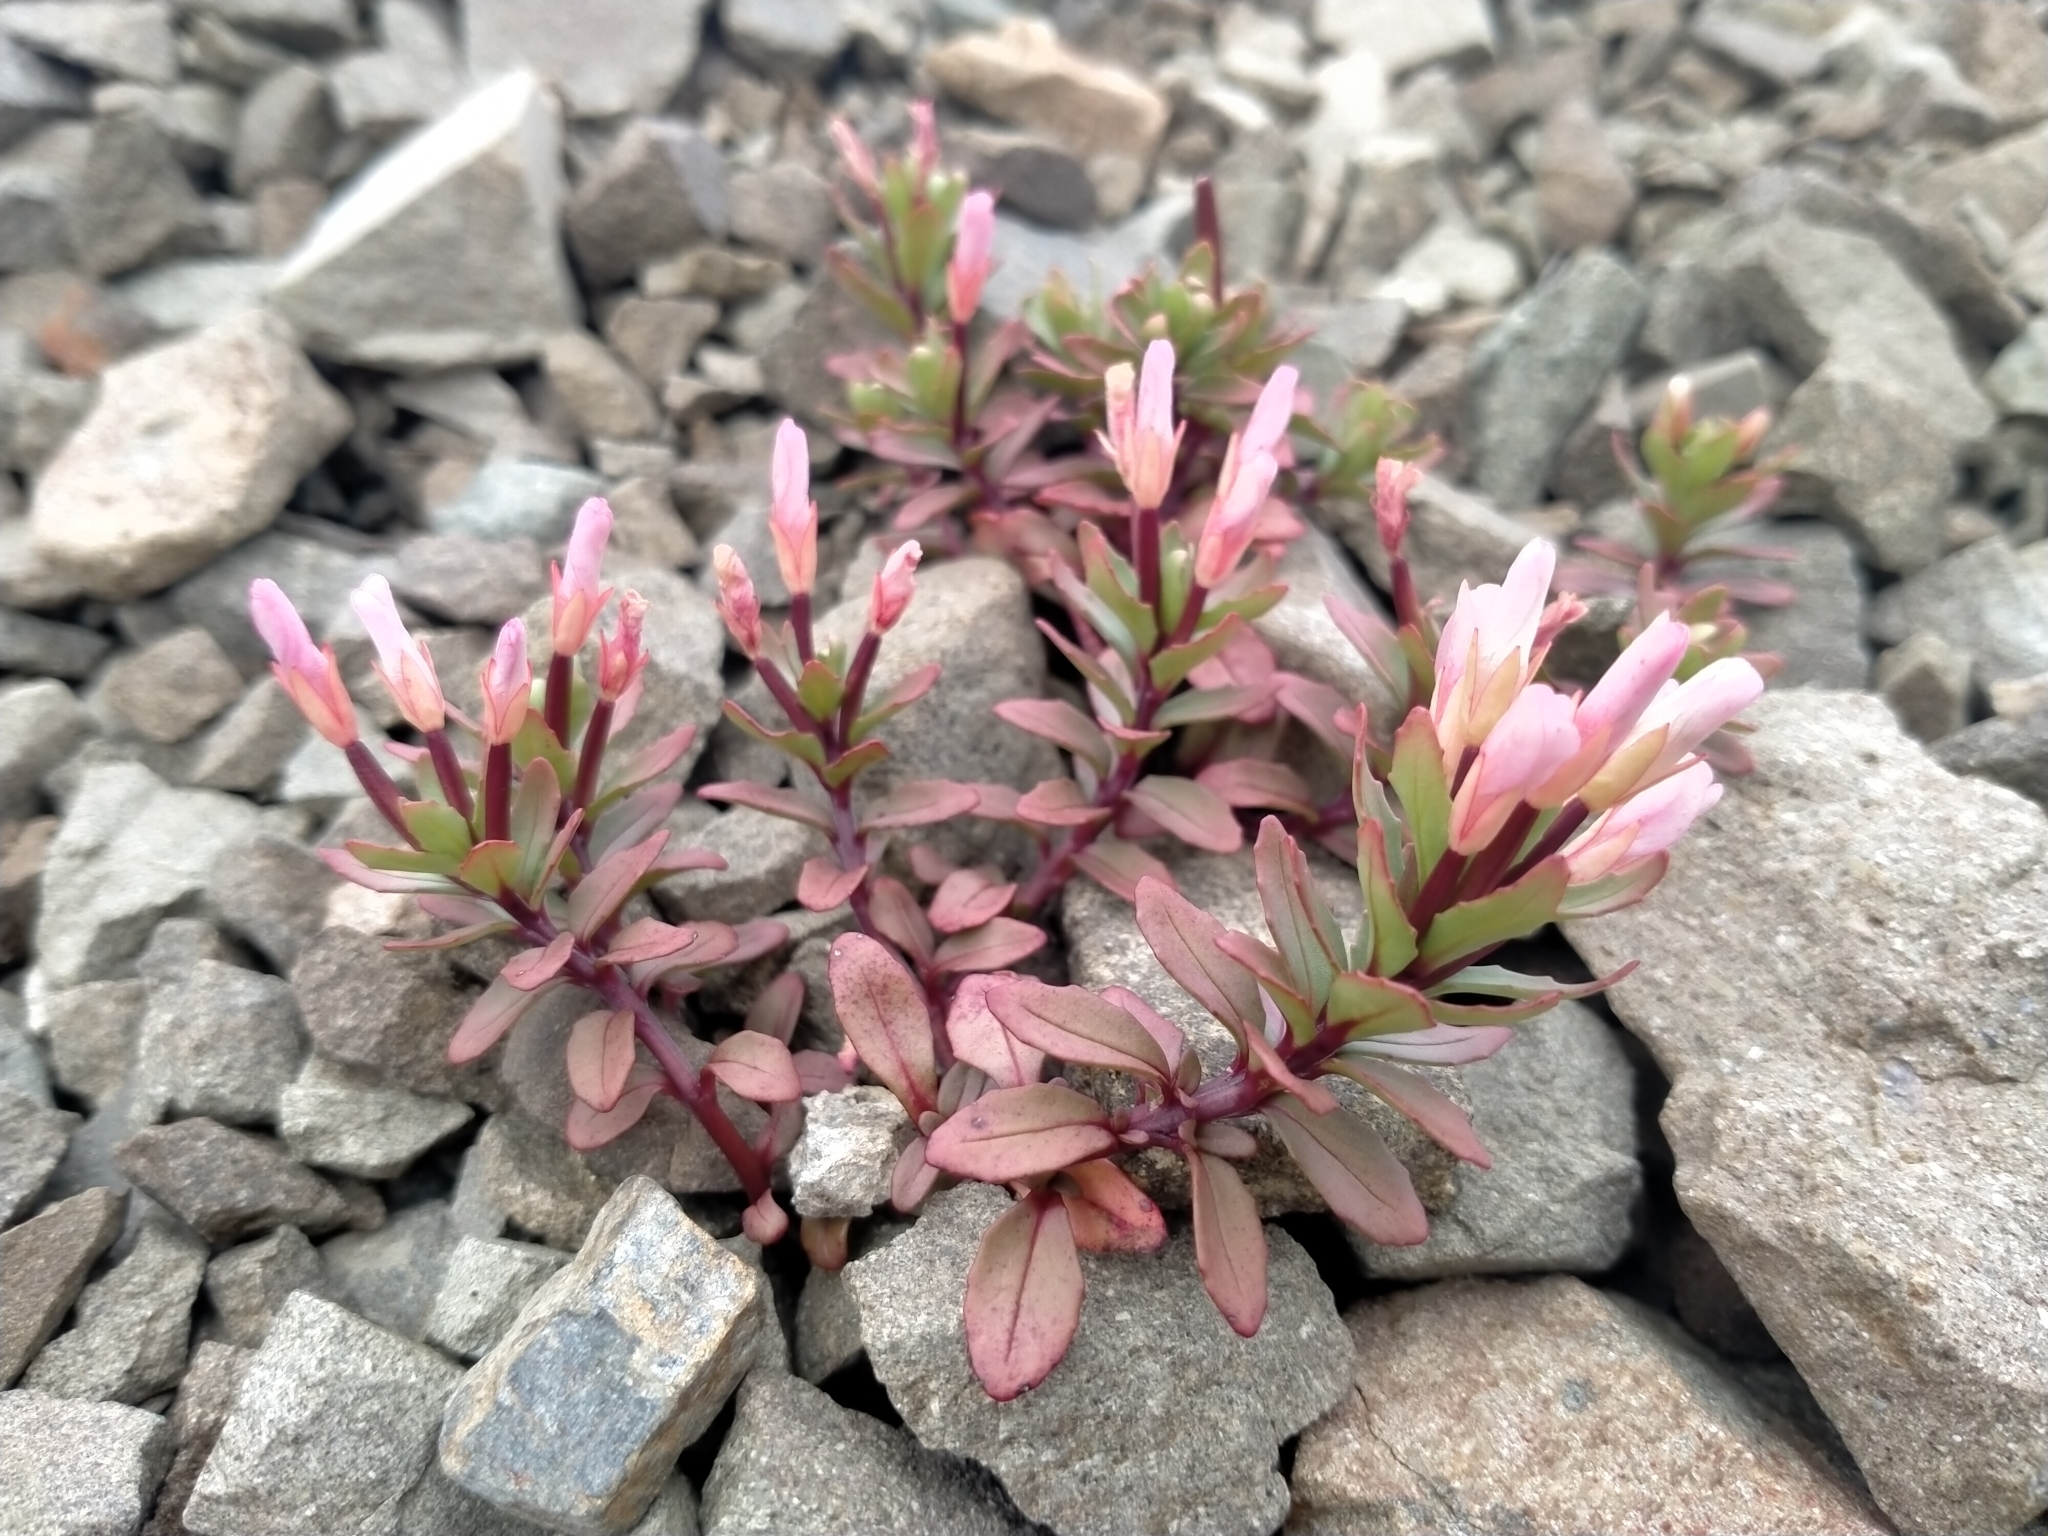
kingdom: Plantae
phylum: Tracheophyta
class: Magnoliopsida
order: Myrtales
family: Onagraceae
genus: Epilobium
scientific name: Epilobium pycnostachyum
